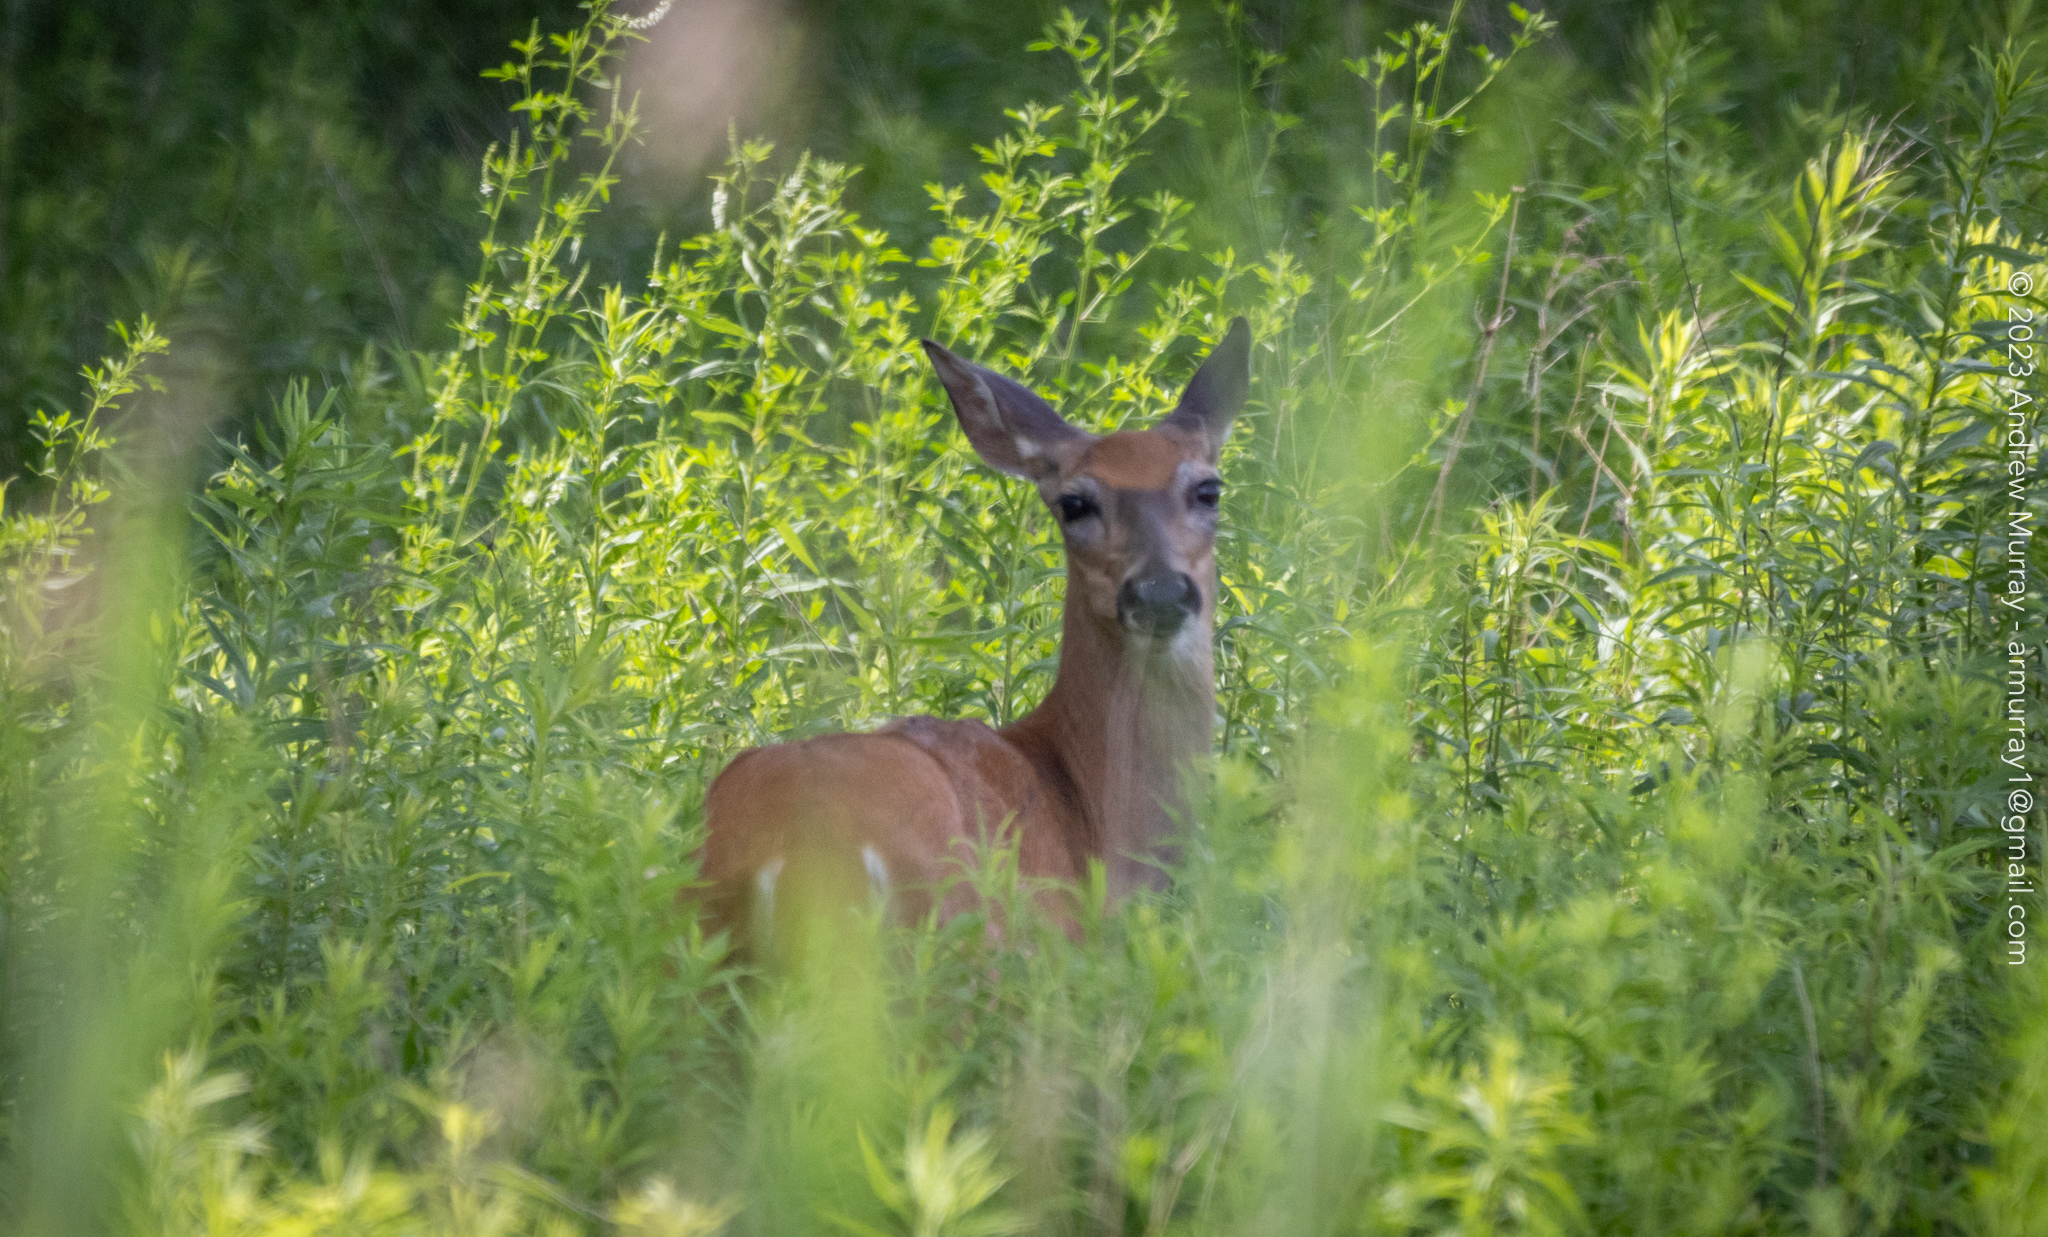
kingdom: Animalia
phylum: Chordata
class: Mammalia
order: Artiodactyla
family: Cervidae
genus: Odocoileus
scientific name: Odocoileus virginianus
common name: White-tailed deer
